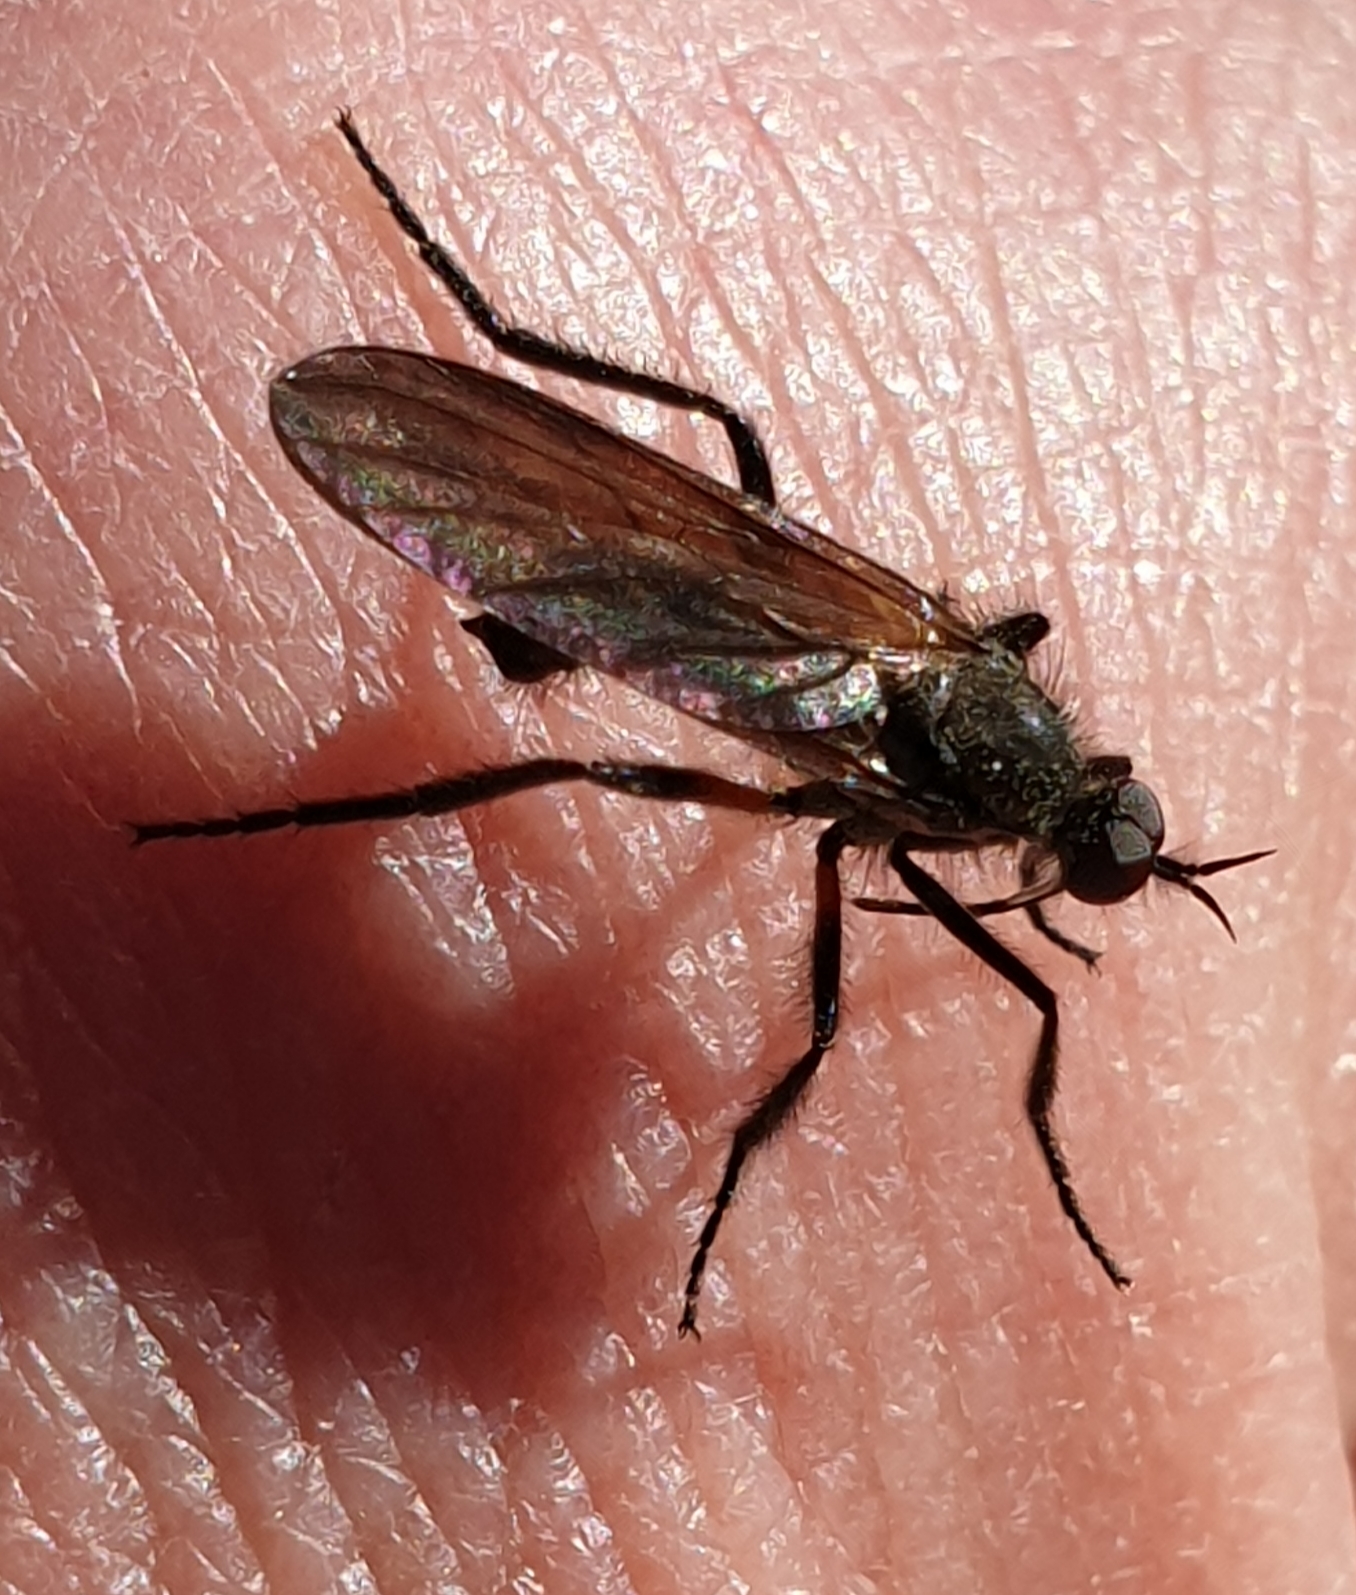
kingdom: Animalia
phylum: Arthropoda
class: Insecta
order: Diptera
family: Empididae
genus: Empis
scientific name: Empis borealis
